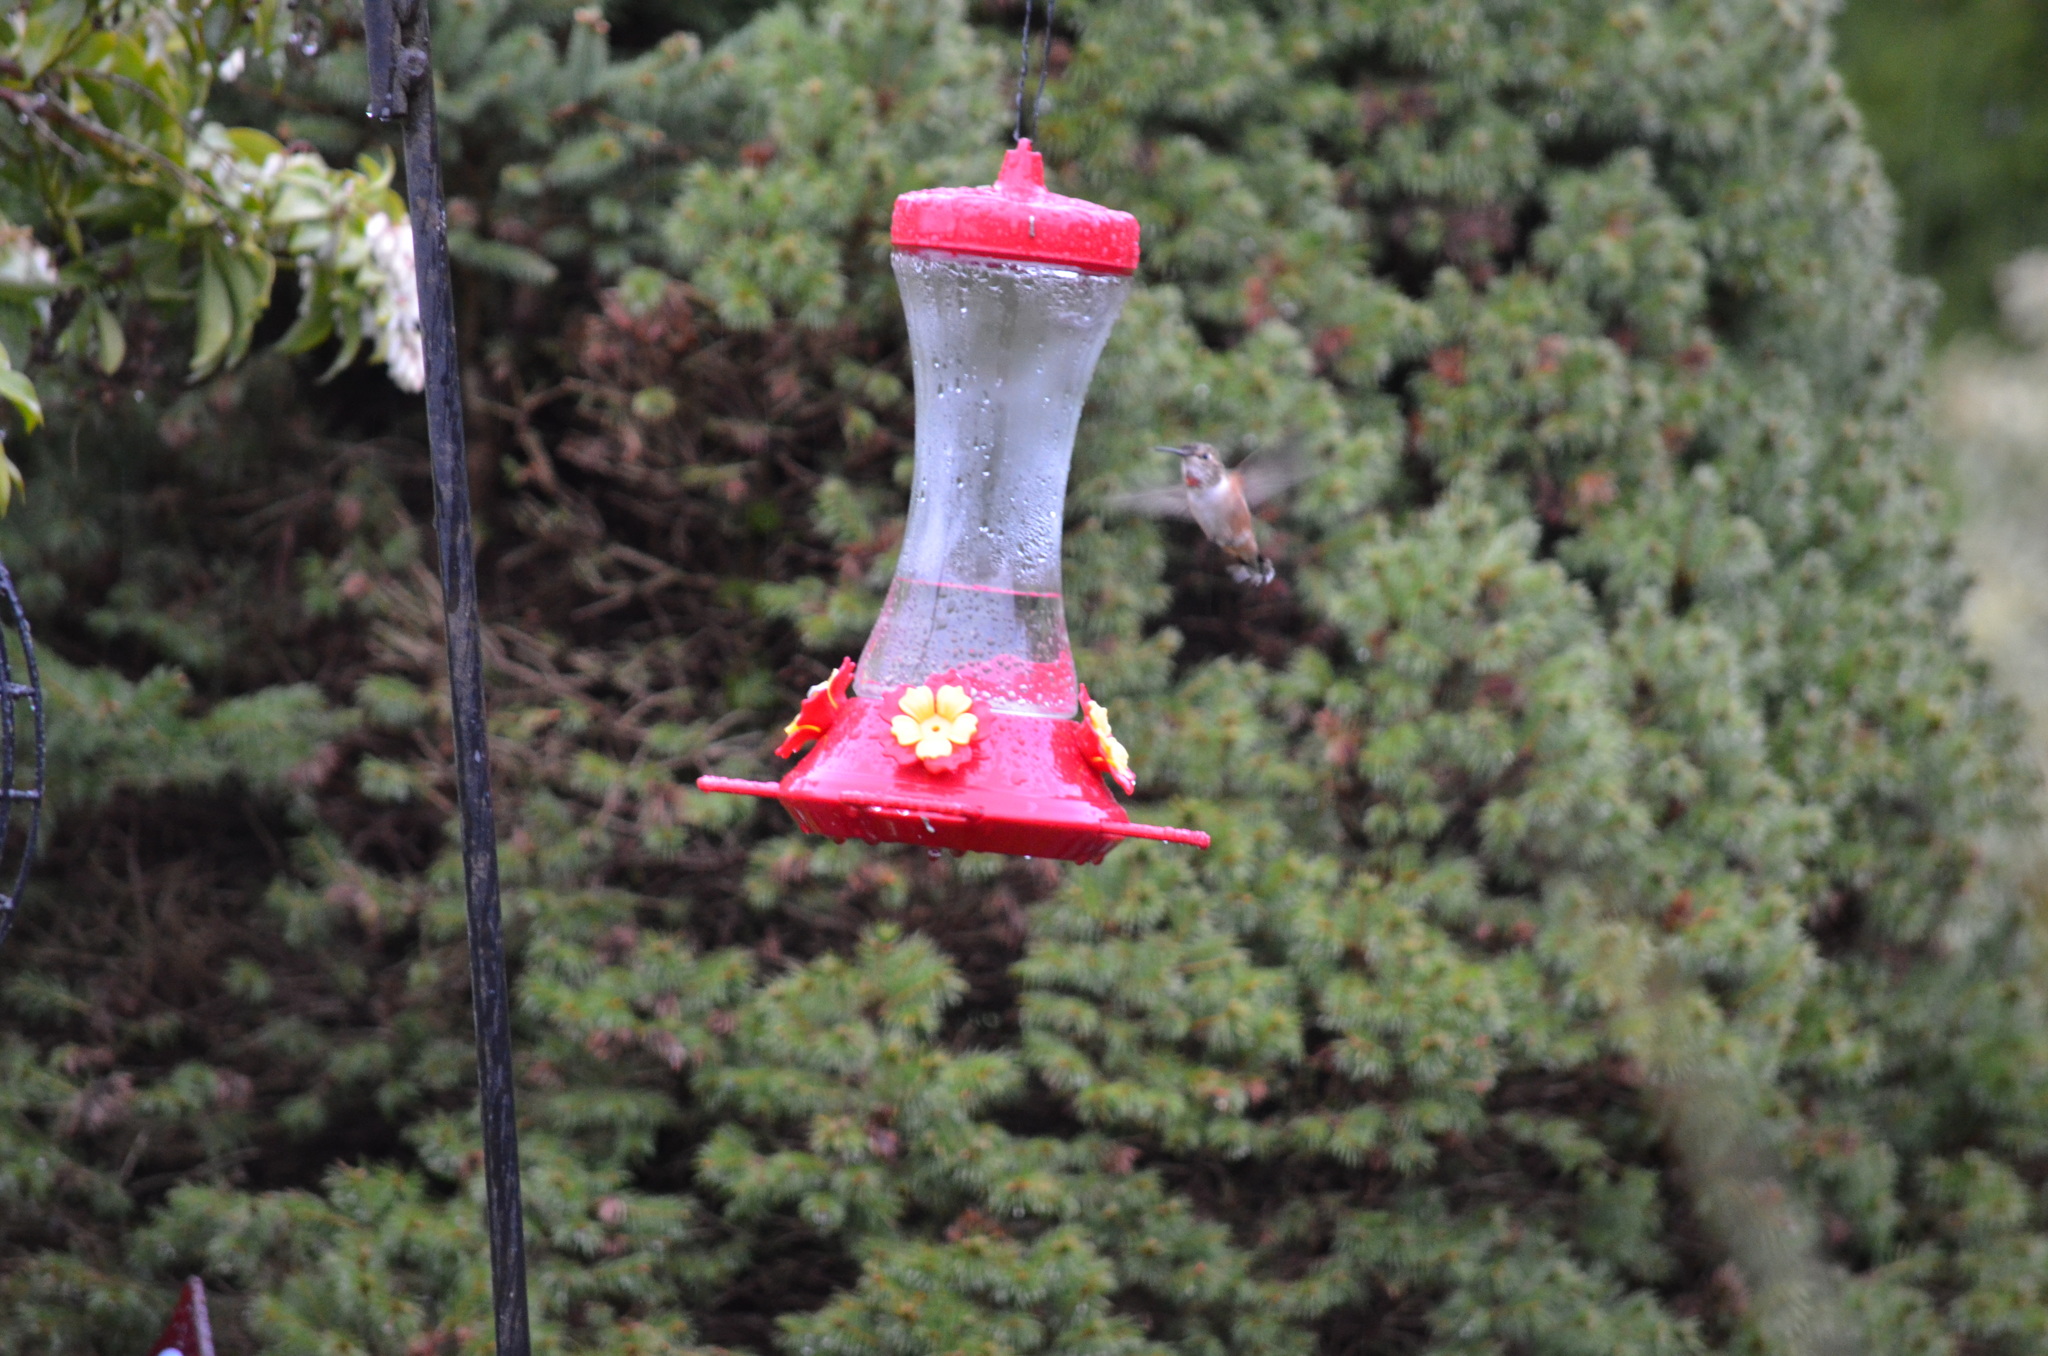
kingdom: Animalia
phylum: Chordata
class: Aves
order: Apodiformes
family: Trochilidae
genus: Selasphorus
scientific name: Selasphorus rufus
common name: Rufous hummingbird
